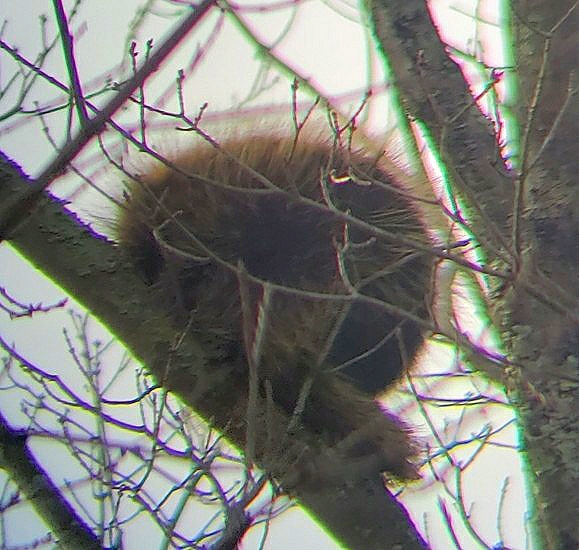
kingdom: Animalia
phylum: Chordata
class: Mammalia
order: Rodentia
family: Erethizontidae
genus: Erethizon
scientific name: Erethizon dorsatus
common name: North american porcupine
